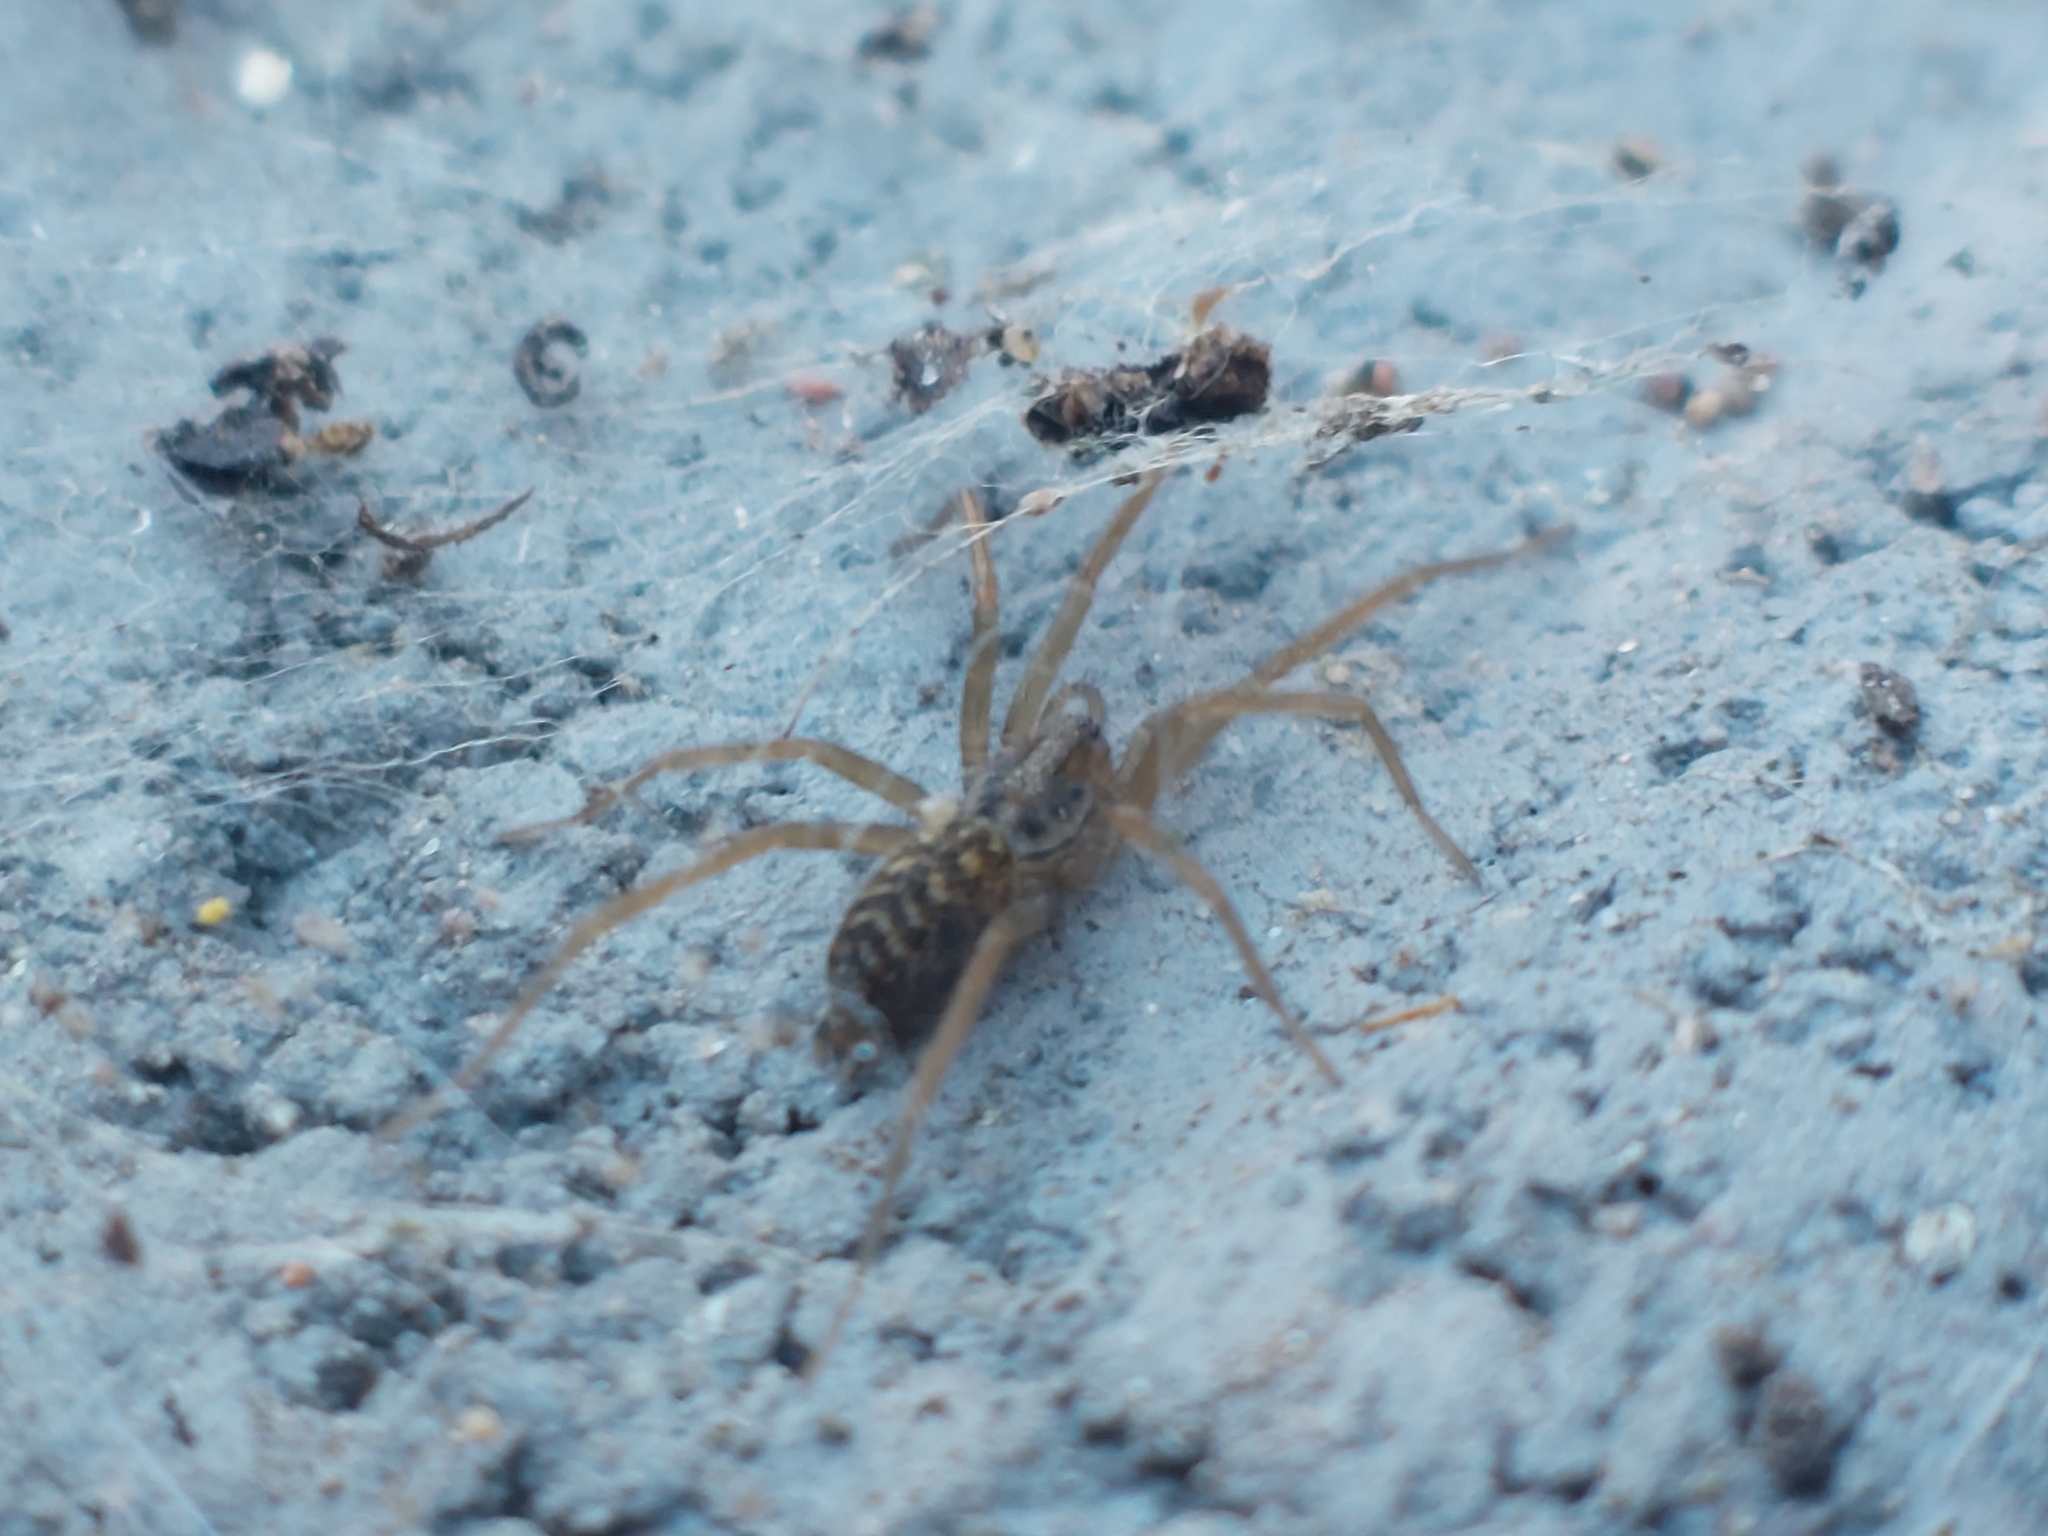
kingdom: Animalia
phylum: Arthropoda
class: Arachnida
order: Araneae
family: Agelenidae
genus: Eratigena
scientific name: Eratigena atrica
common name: Giant house spider
